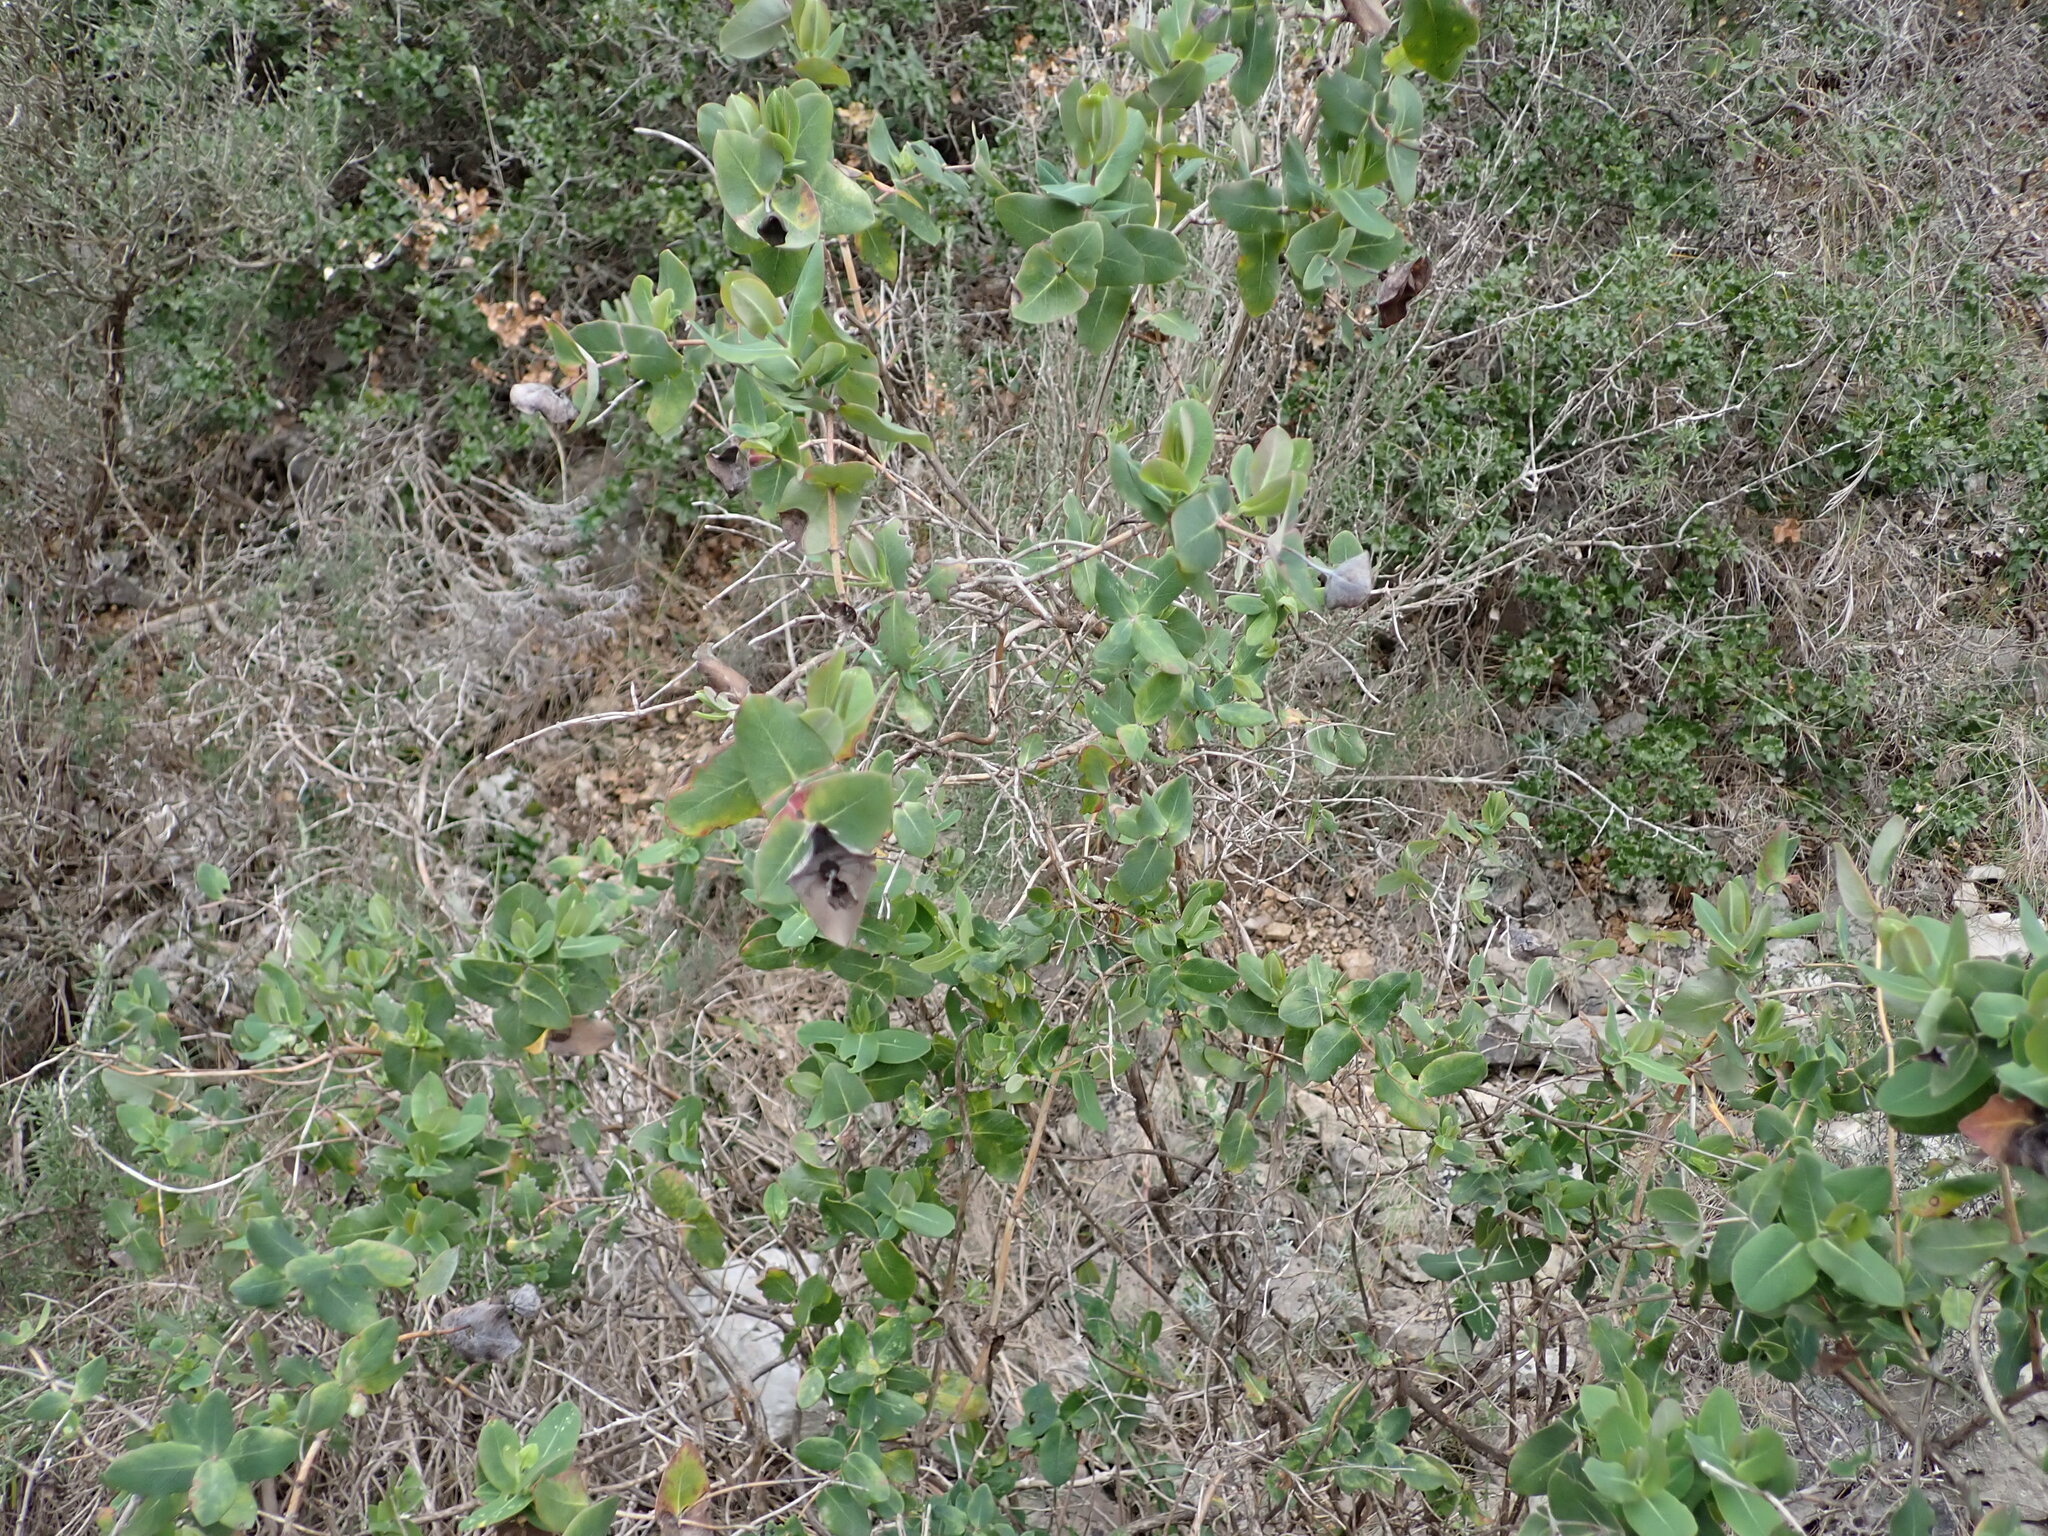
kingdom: Plantae
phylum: Tracheophyta
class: Magnoliopsida
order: Dipsacales
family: Caprifoliaceae
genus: Lonicera
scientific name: Lonicera implexa
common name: Minorca honeysuckle
